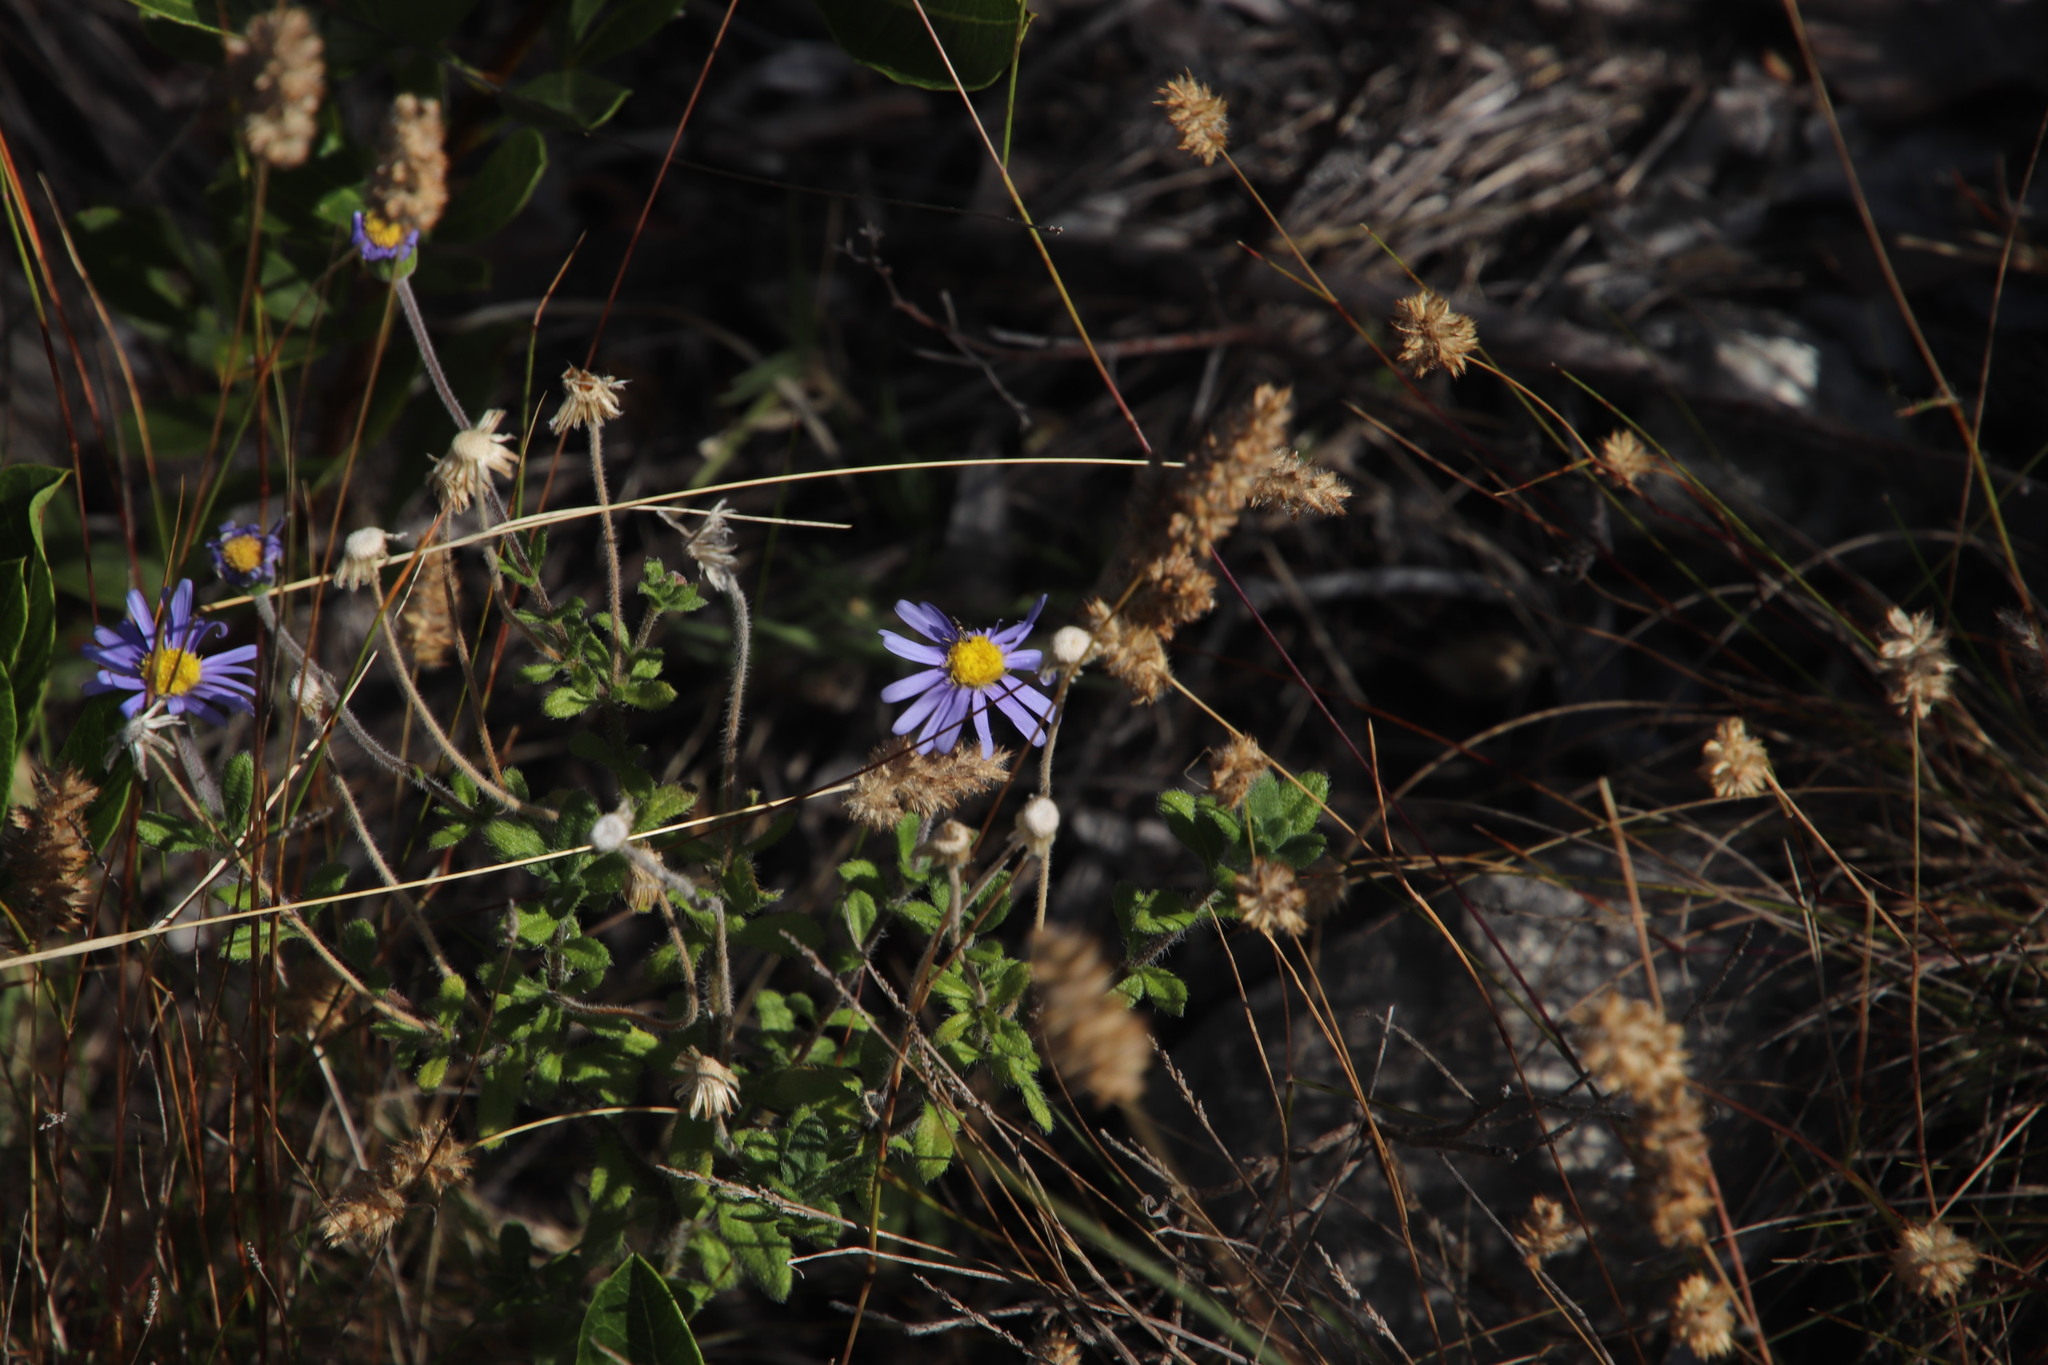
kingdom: Plantae
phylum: Tracheophyta
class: Magnoliopsida
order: Asterales
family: Asteraceae
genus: Felicia
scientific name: Felicia amoena
